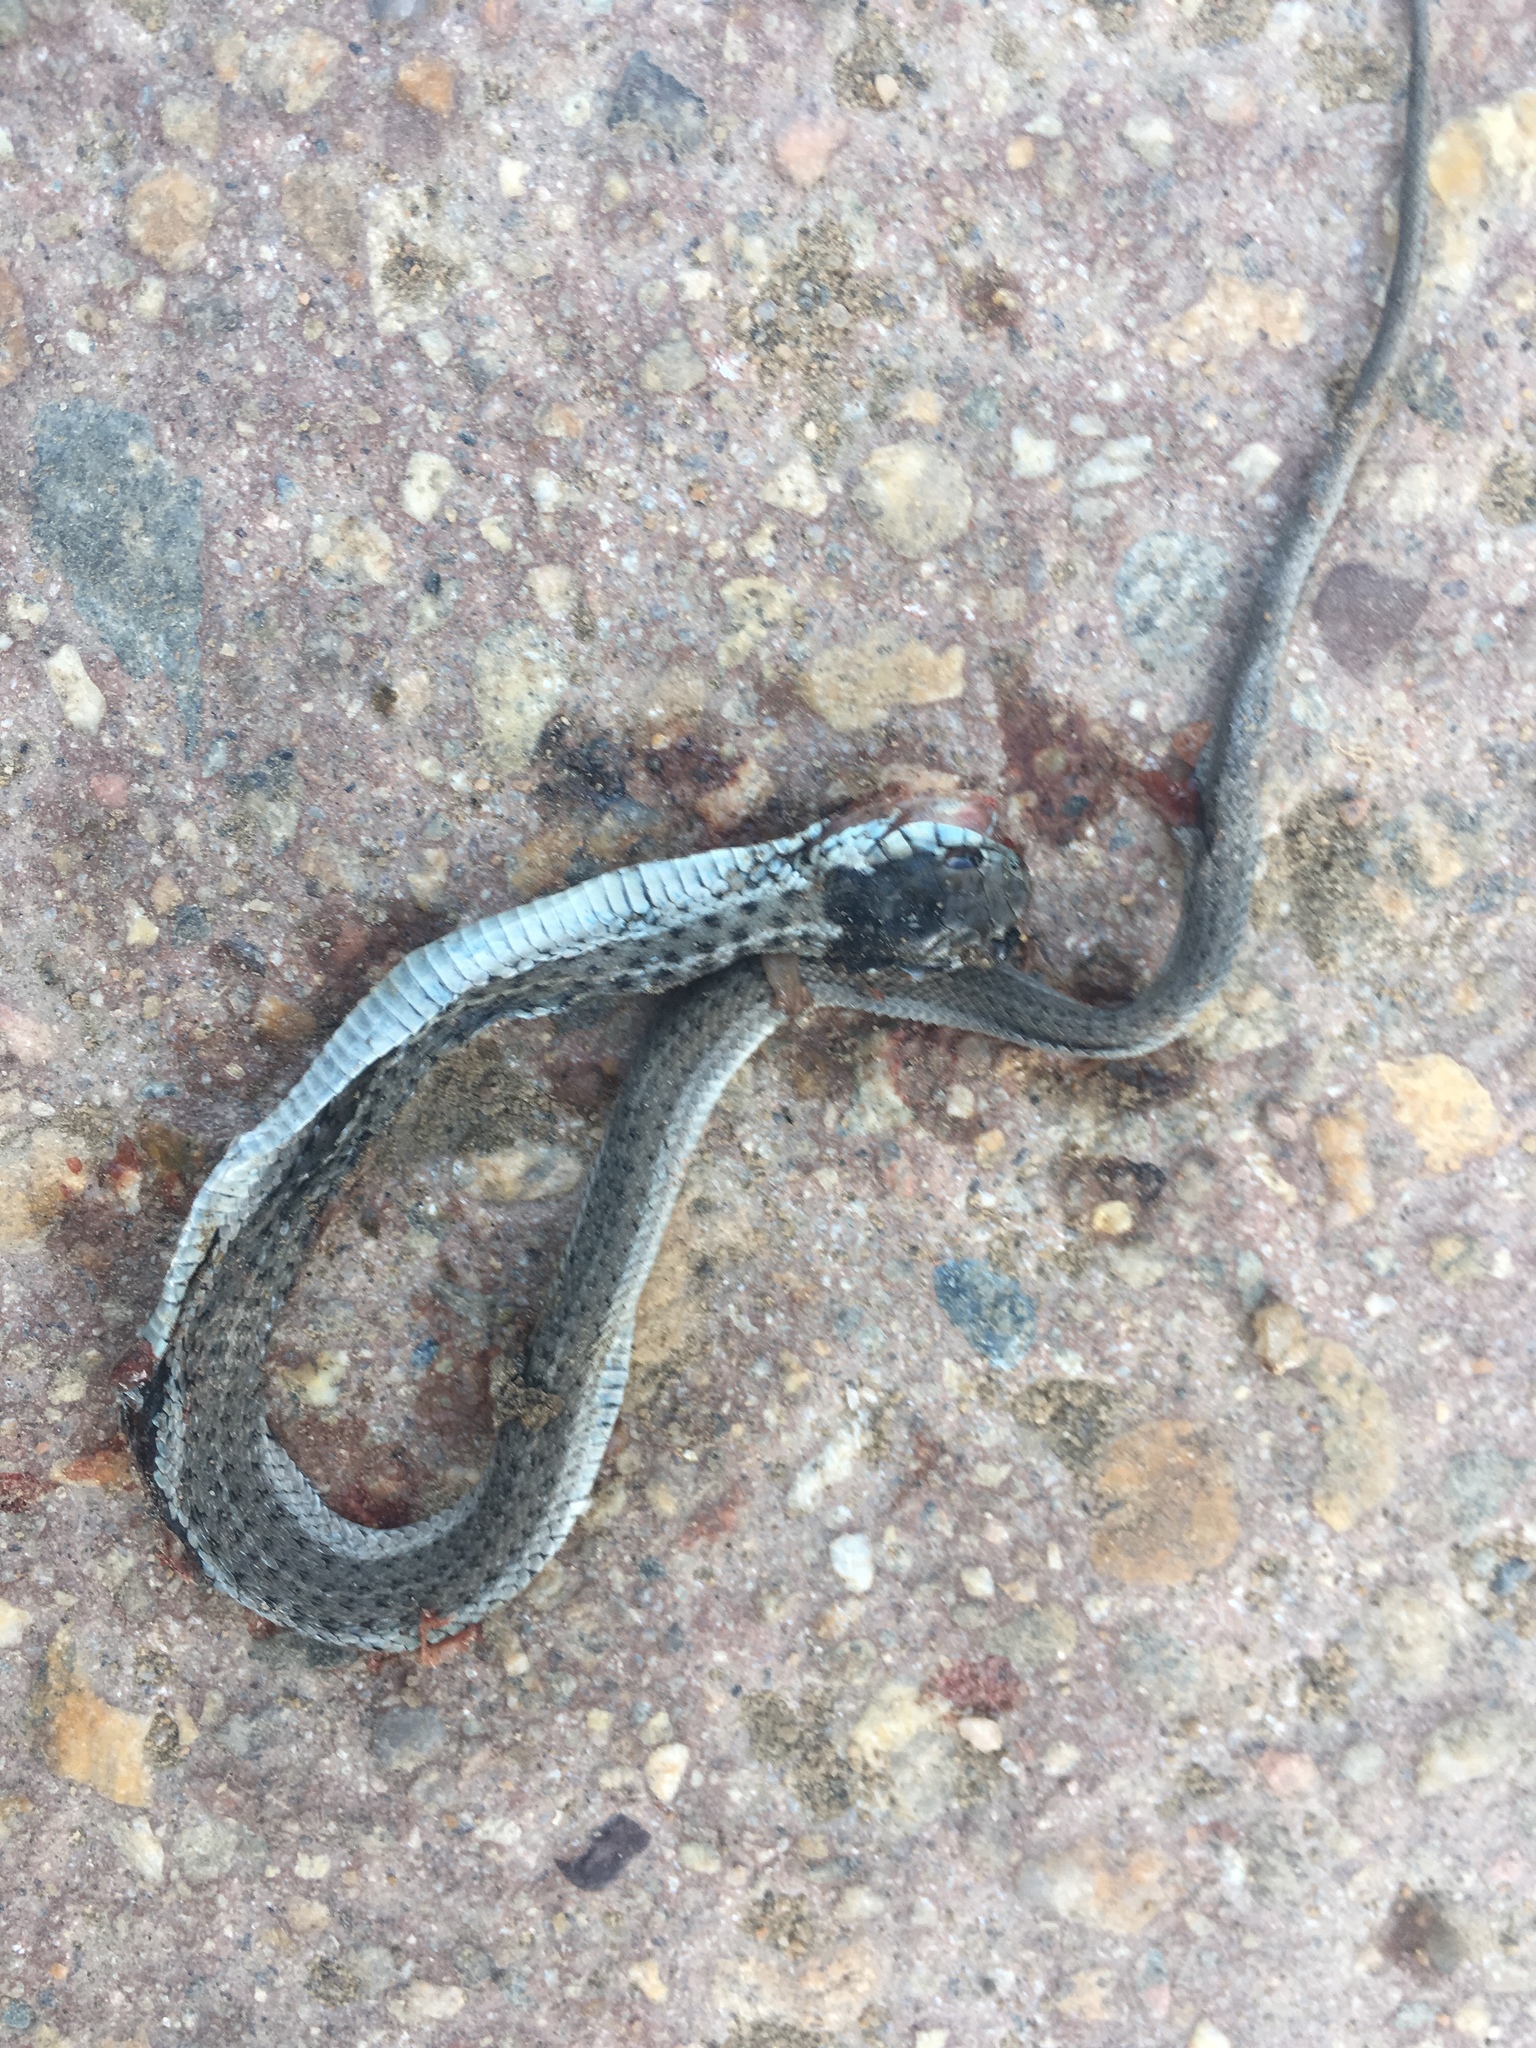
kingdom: Animalia
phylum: Chordata
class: Squamata
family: Colubridae
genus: Thamnophis
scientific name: Thamnophis elegans
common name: Western terrestrial garter snake
